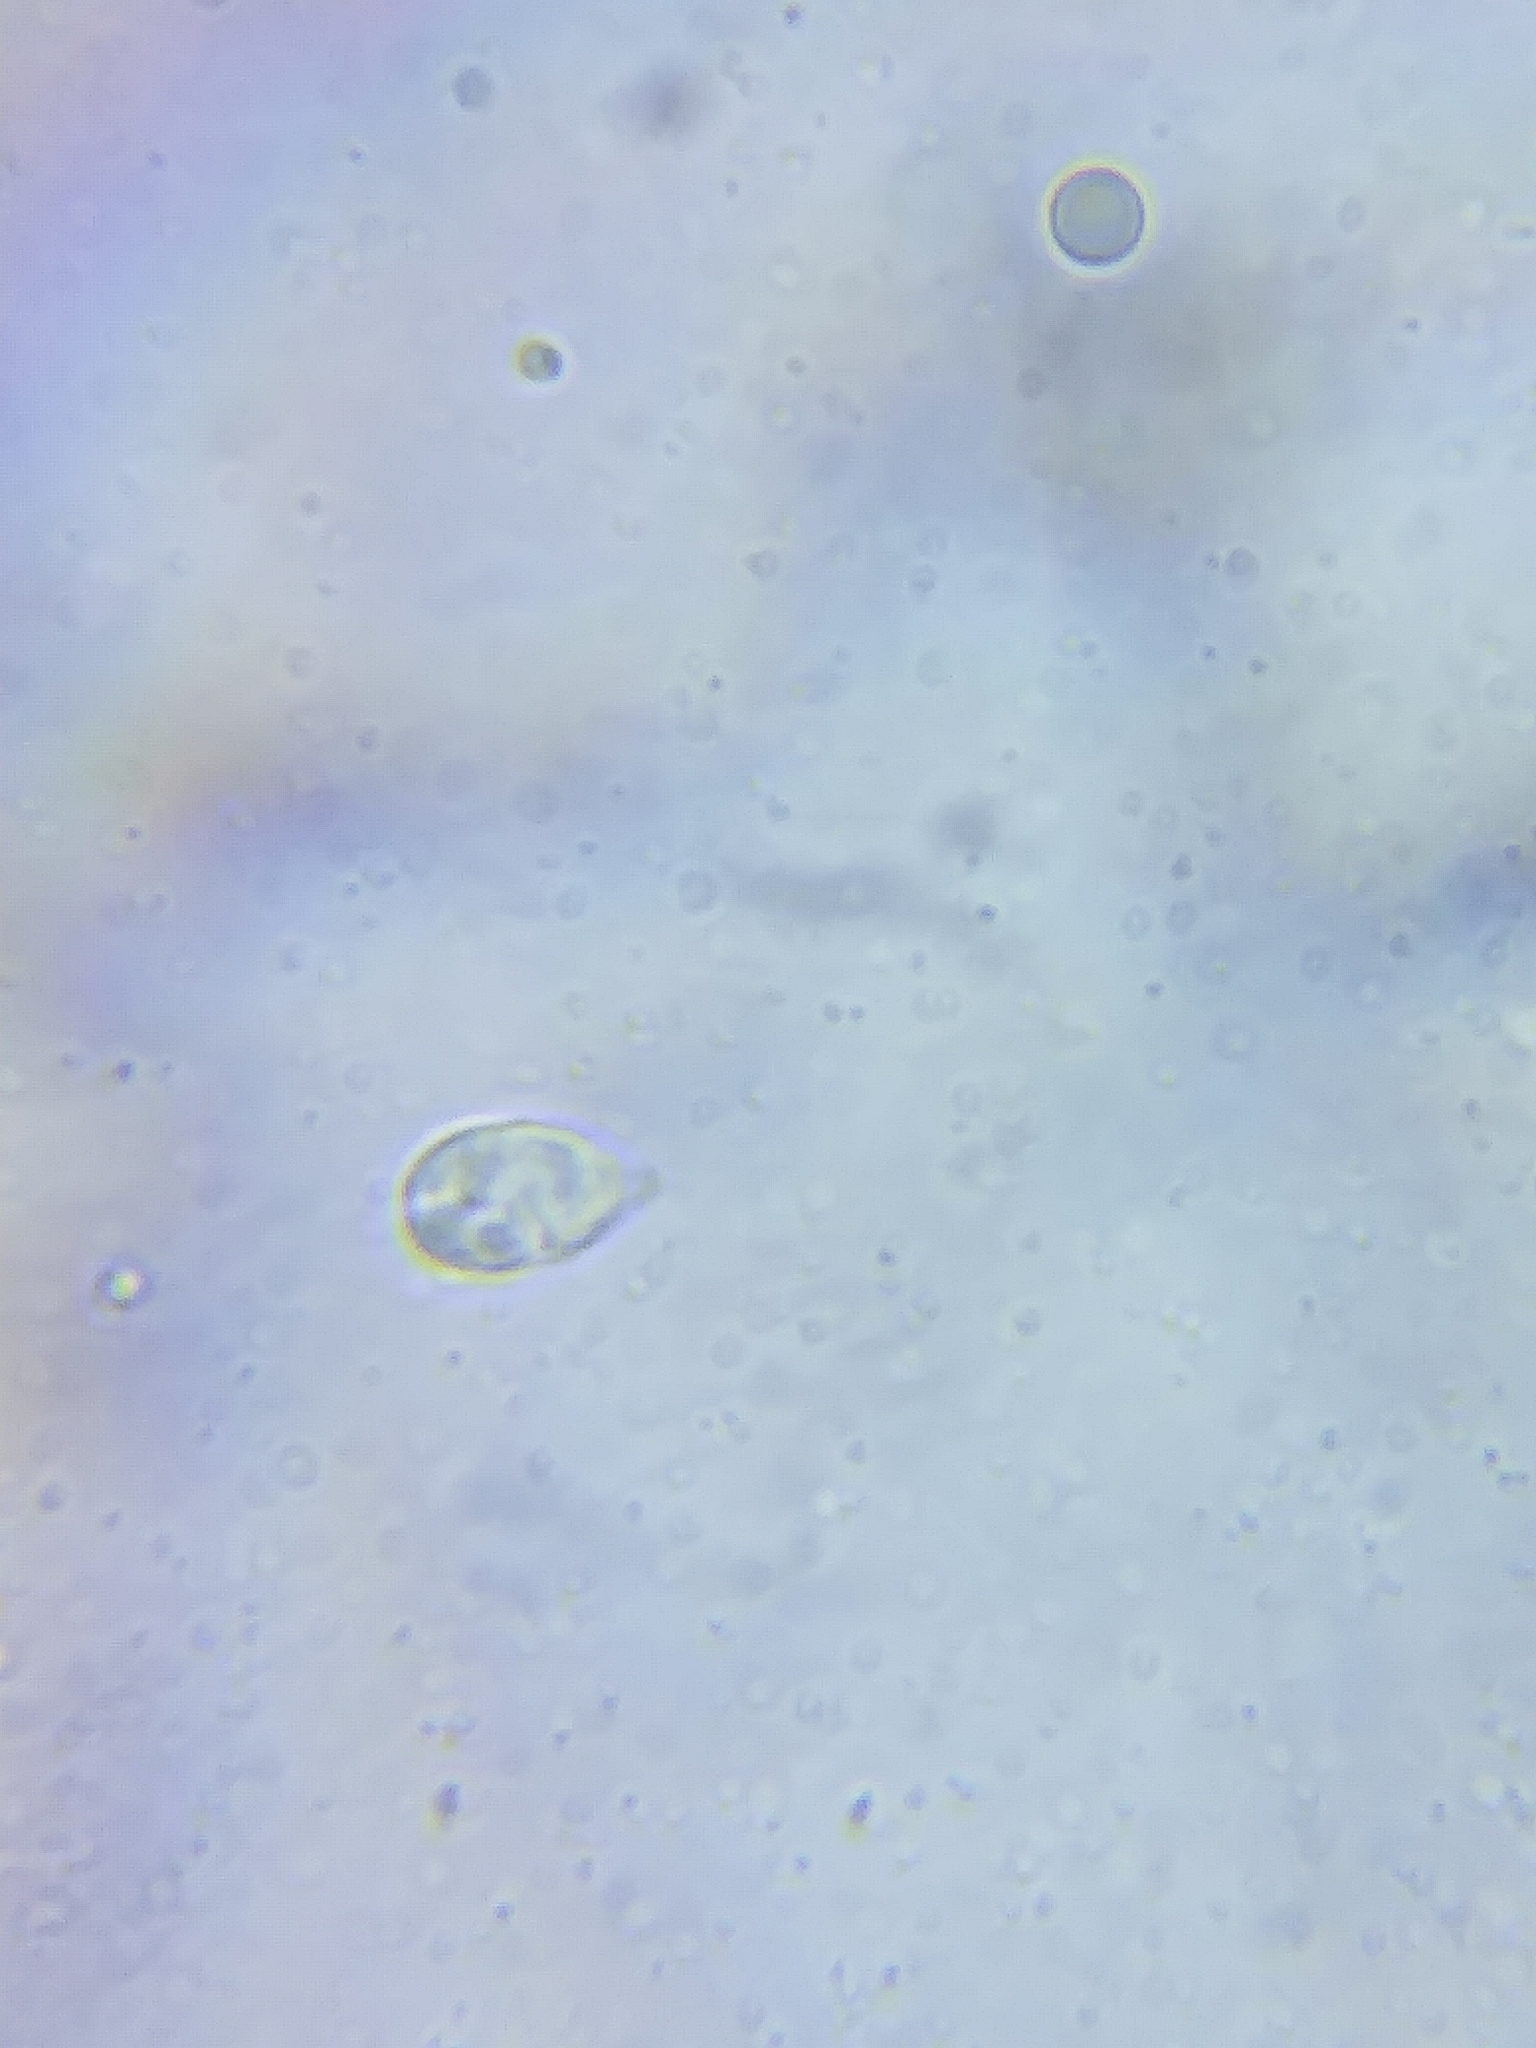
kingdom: Fungi
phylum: Basidiomycota
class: Agaricomycetes
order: Agaricales
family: Hygrophoraceae
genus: Hygrophorus
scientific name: Hygrophorus tennesseensis
